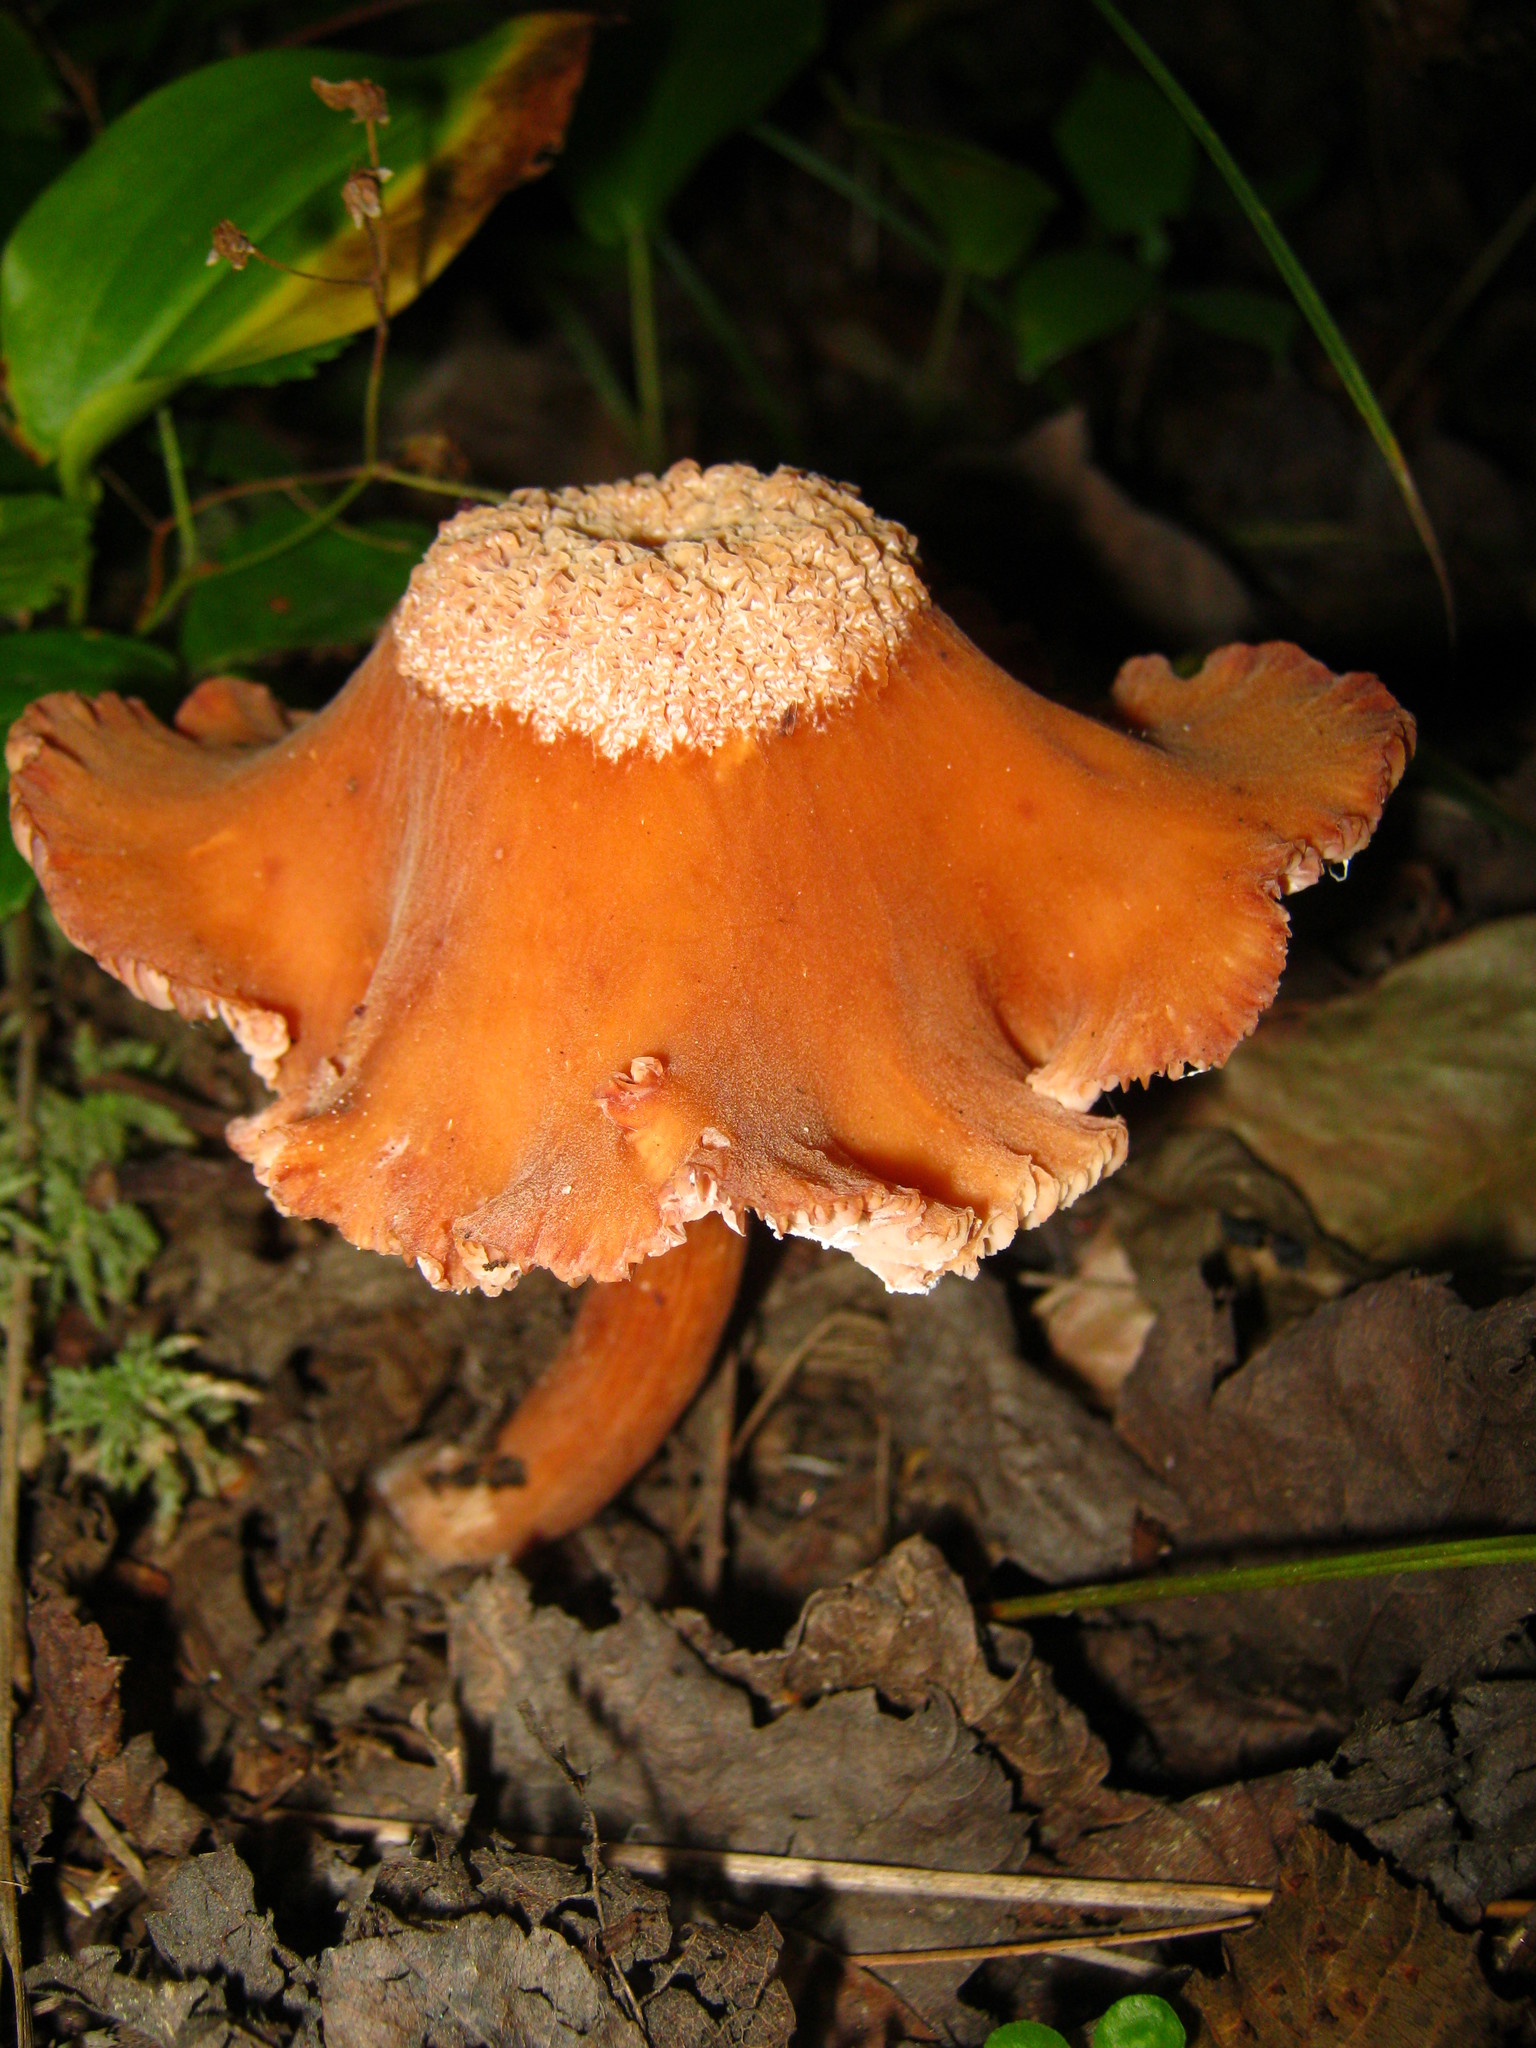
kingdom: Fungi
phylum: Basidiomycota
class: Agaricomycetes
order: Agaricales
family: Hydnangiaceae
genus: Laccaria
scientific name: Laccaria laccata
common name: Deceiver
